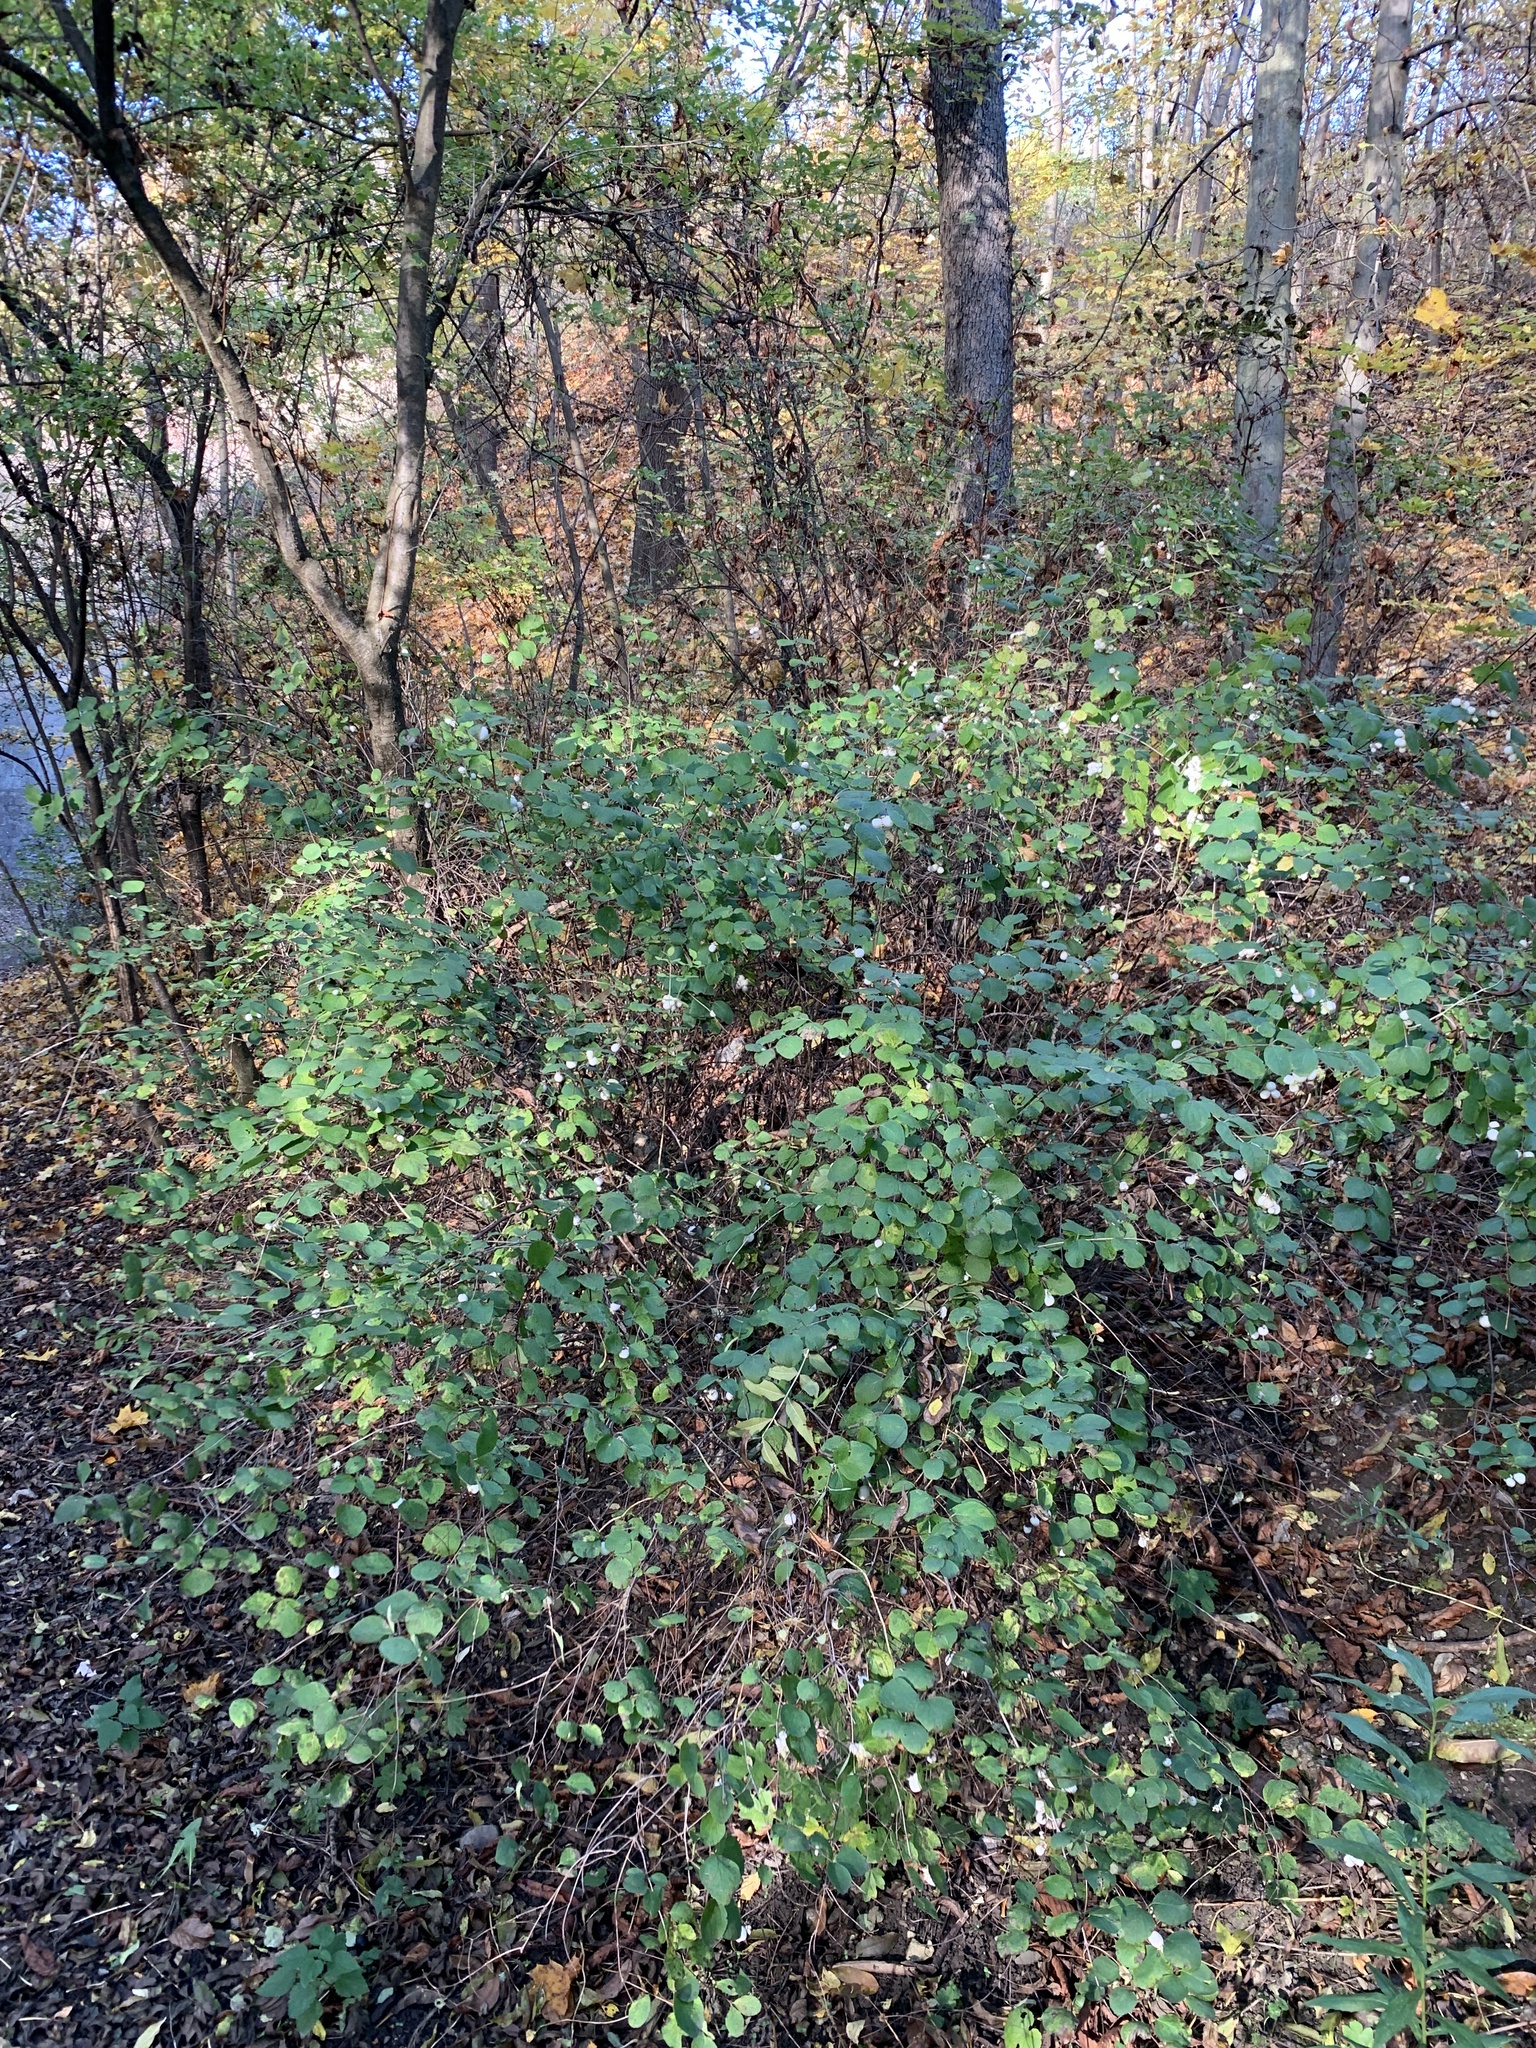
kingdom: Plantae
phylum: Tracheophyta
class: Magnoliopsida
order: Dipsacales
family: Caprifoliaceae
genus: Symphoricarpos
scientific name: Symphoricarpos albus
